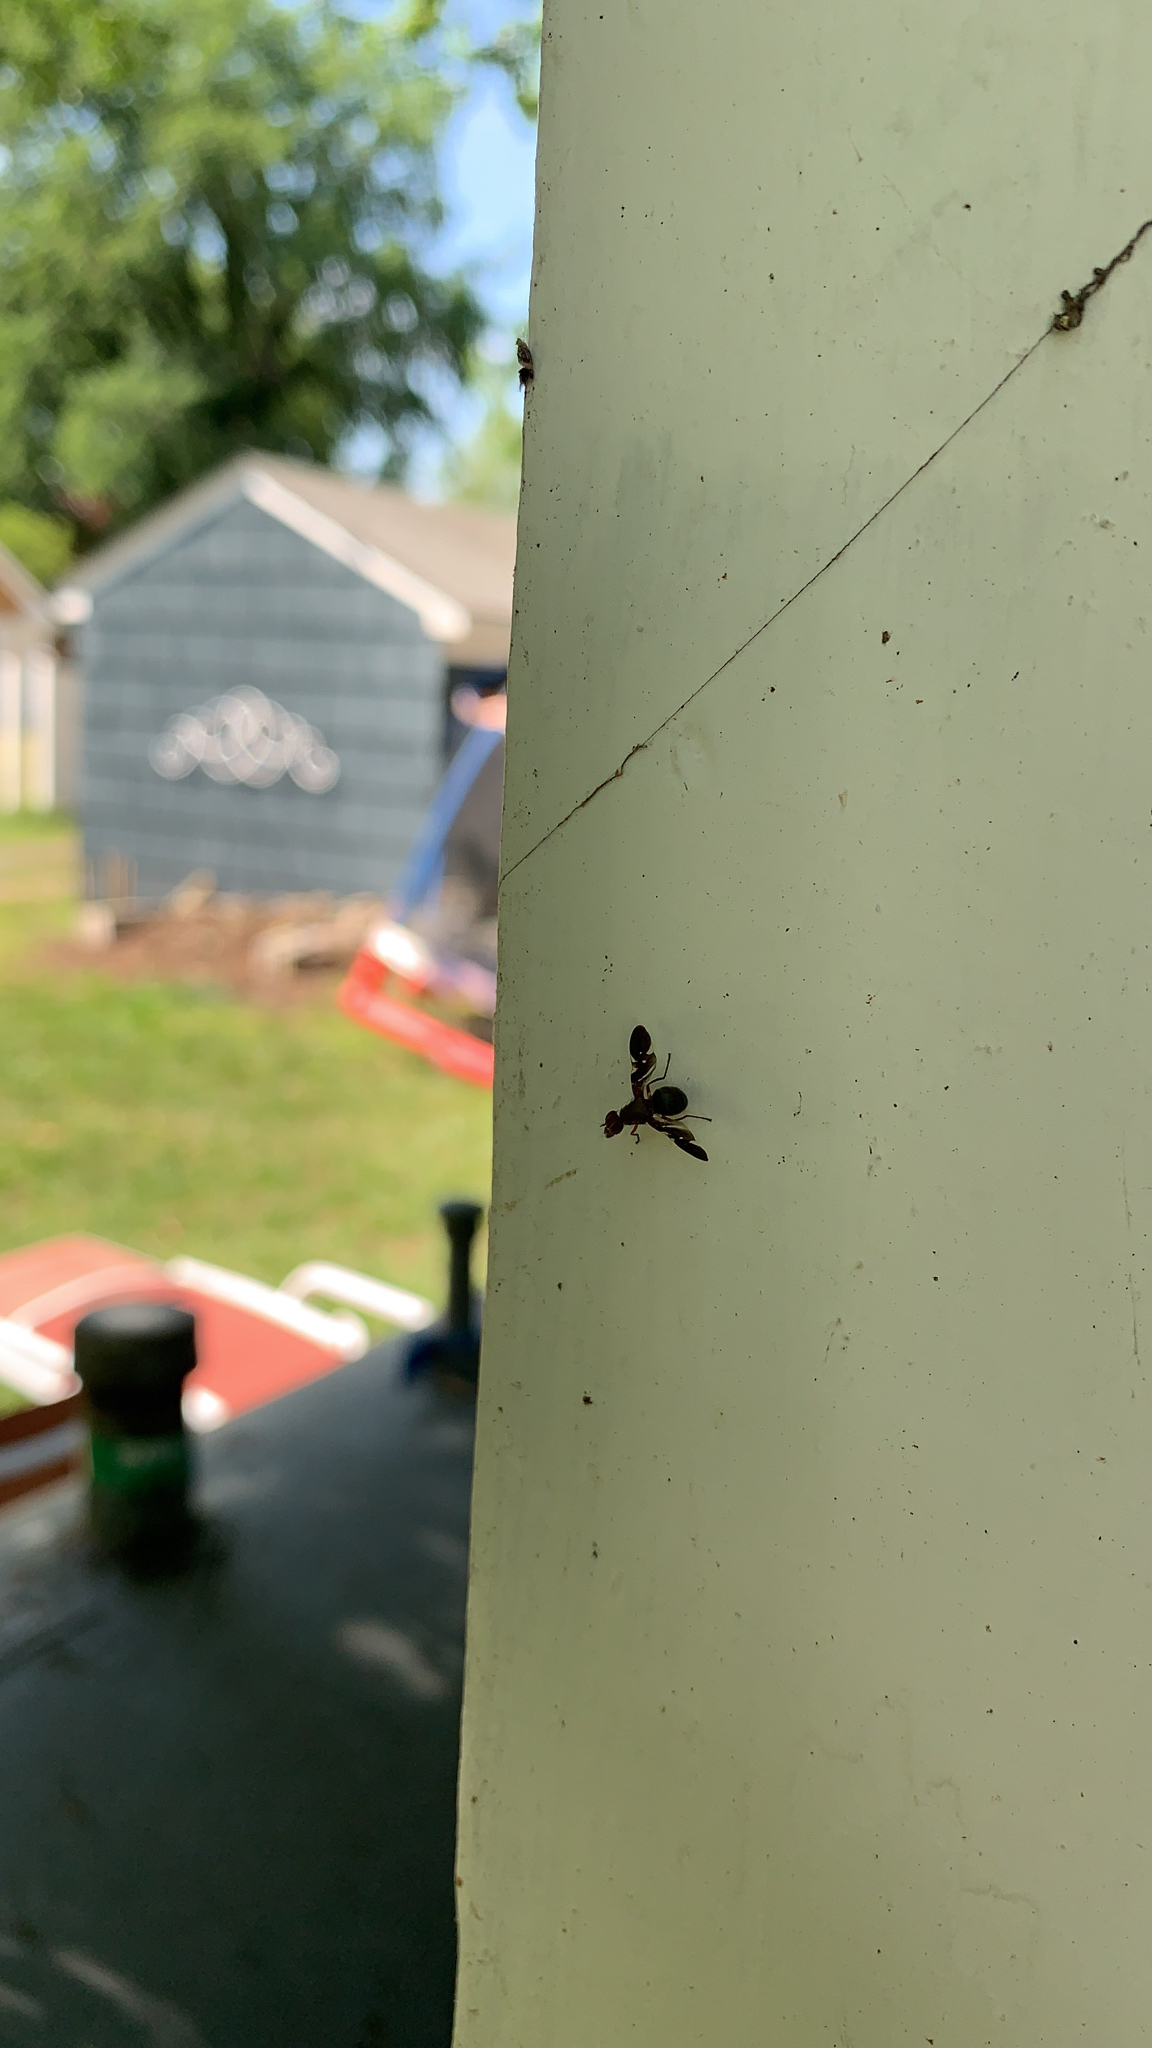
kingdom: Animalia
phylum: Arthropoda
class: Insecta
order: Diptera
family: Ulidiidae
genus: Delphinia
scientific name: Delphinia picta
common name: Common picture-winged fly
